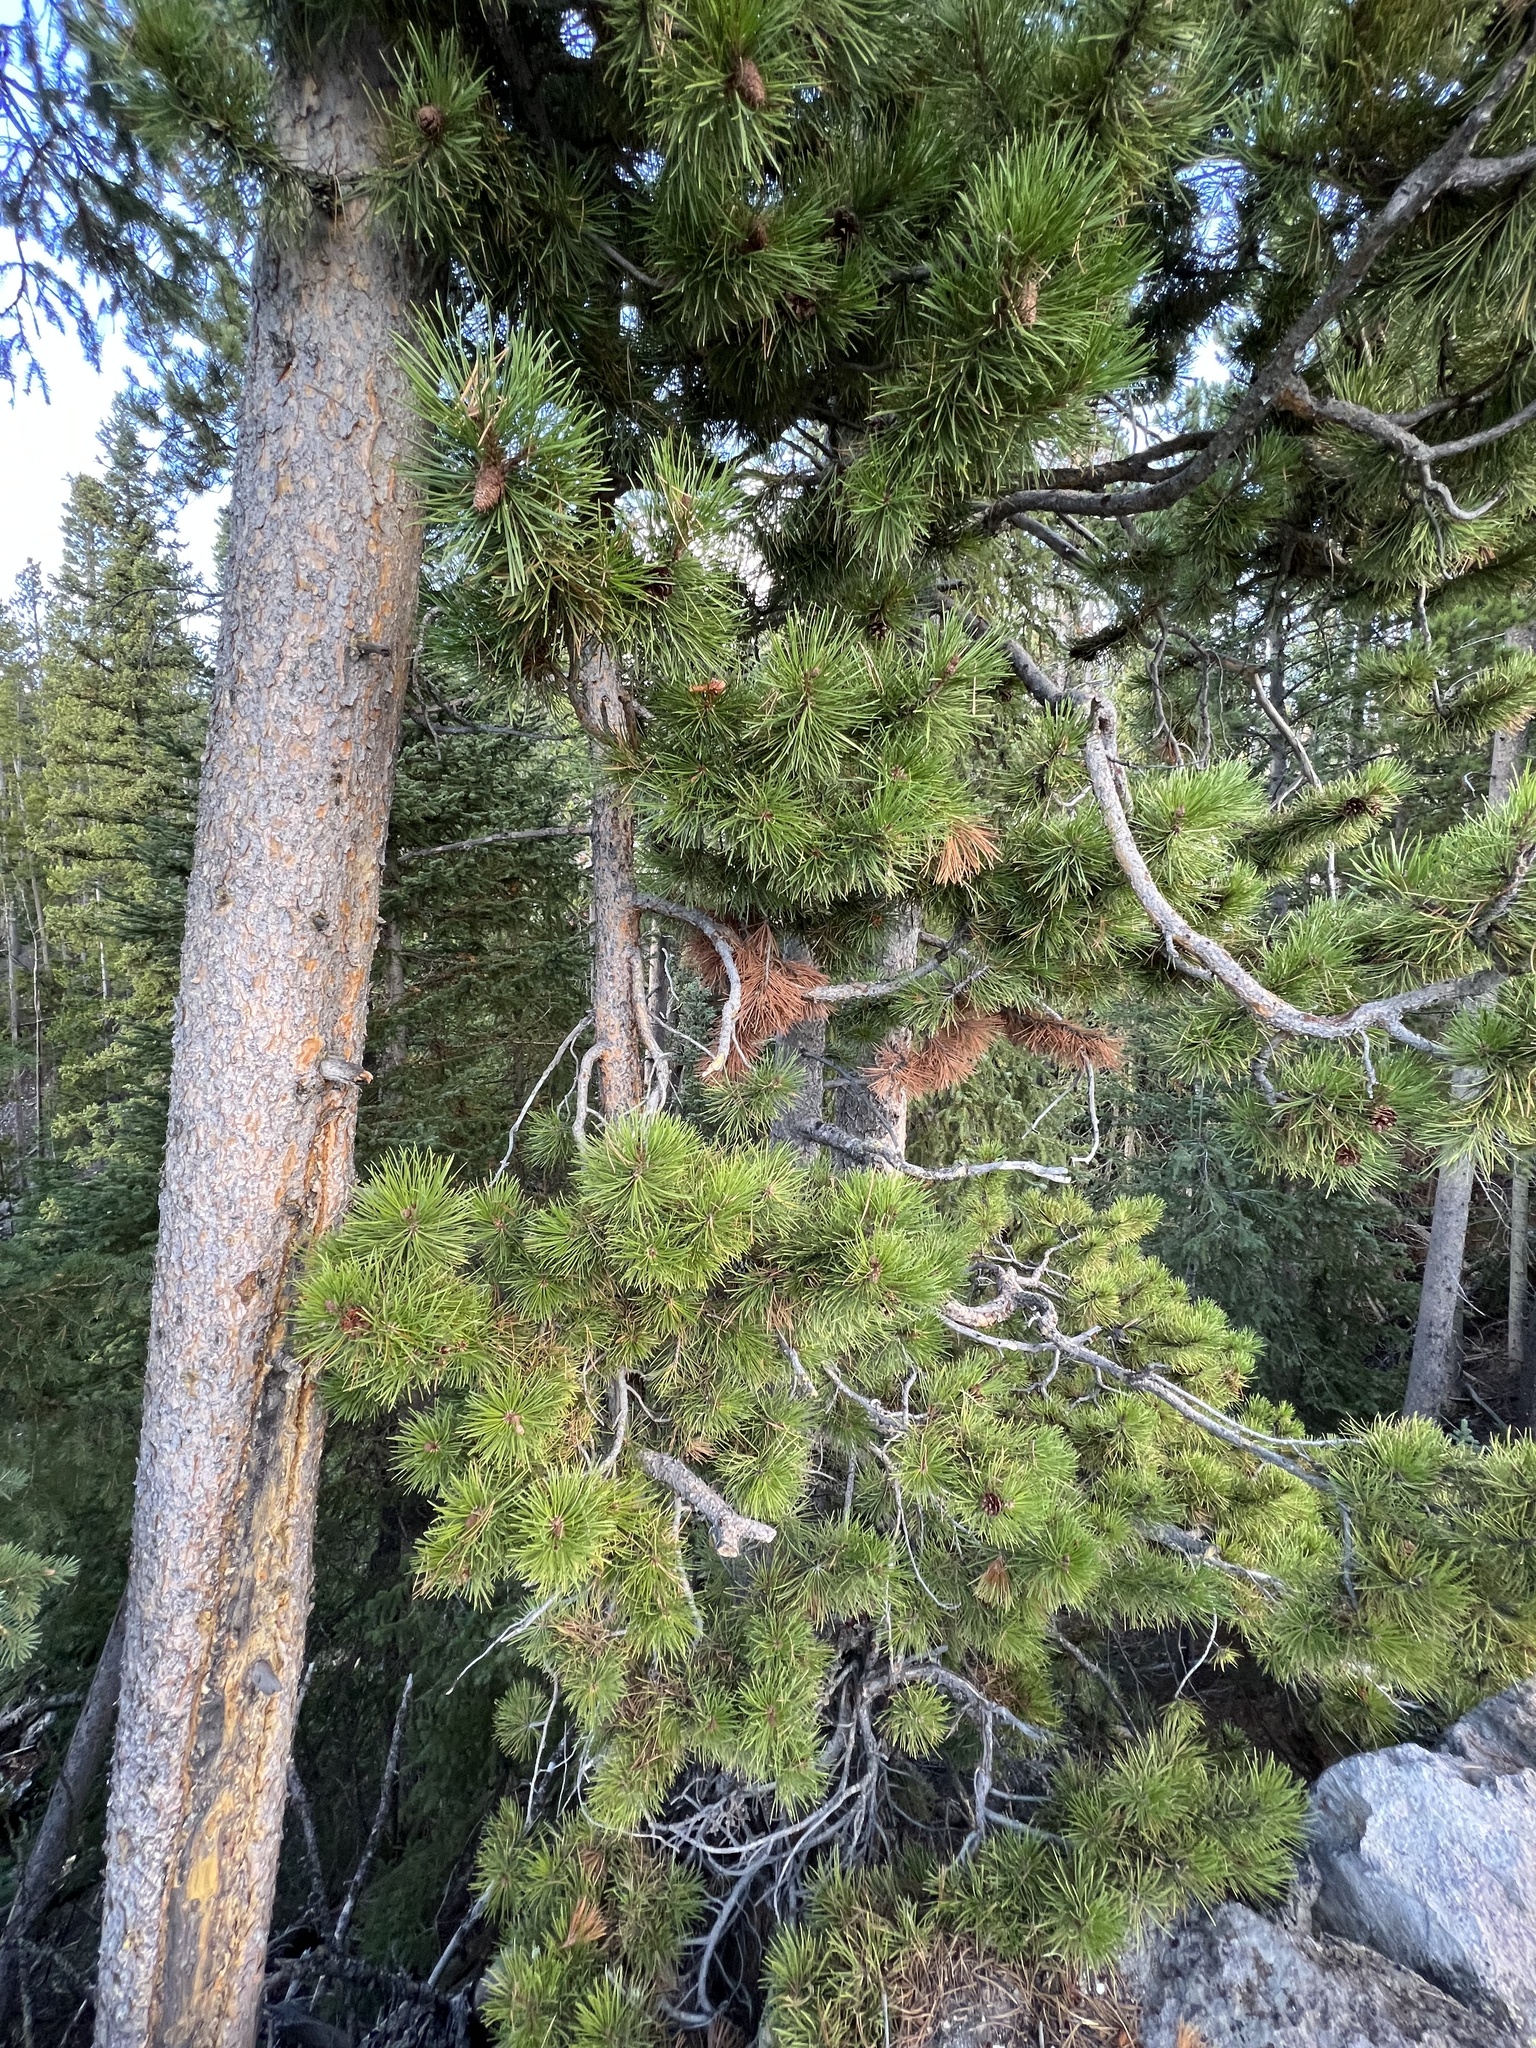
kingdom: Plantae
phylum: Tracheophyta
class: Pinopsida
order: Pinales
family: Pinaceae
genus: Pinus
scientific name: Pinus contorta
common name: Lodgepole pine
